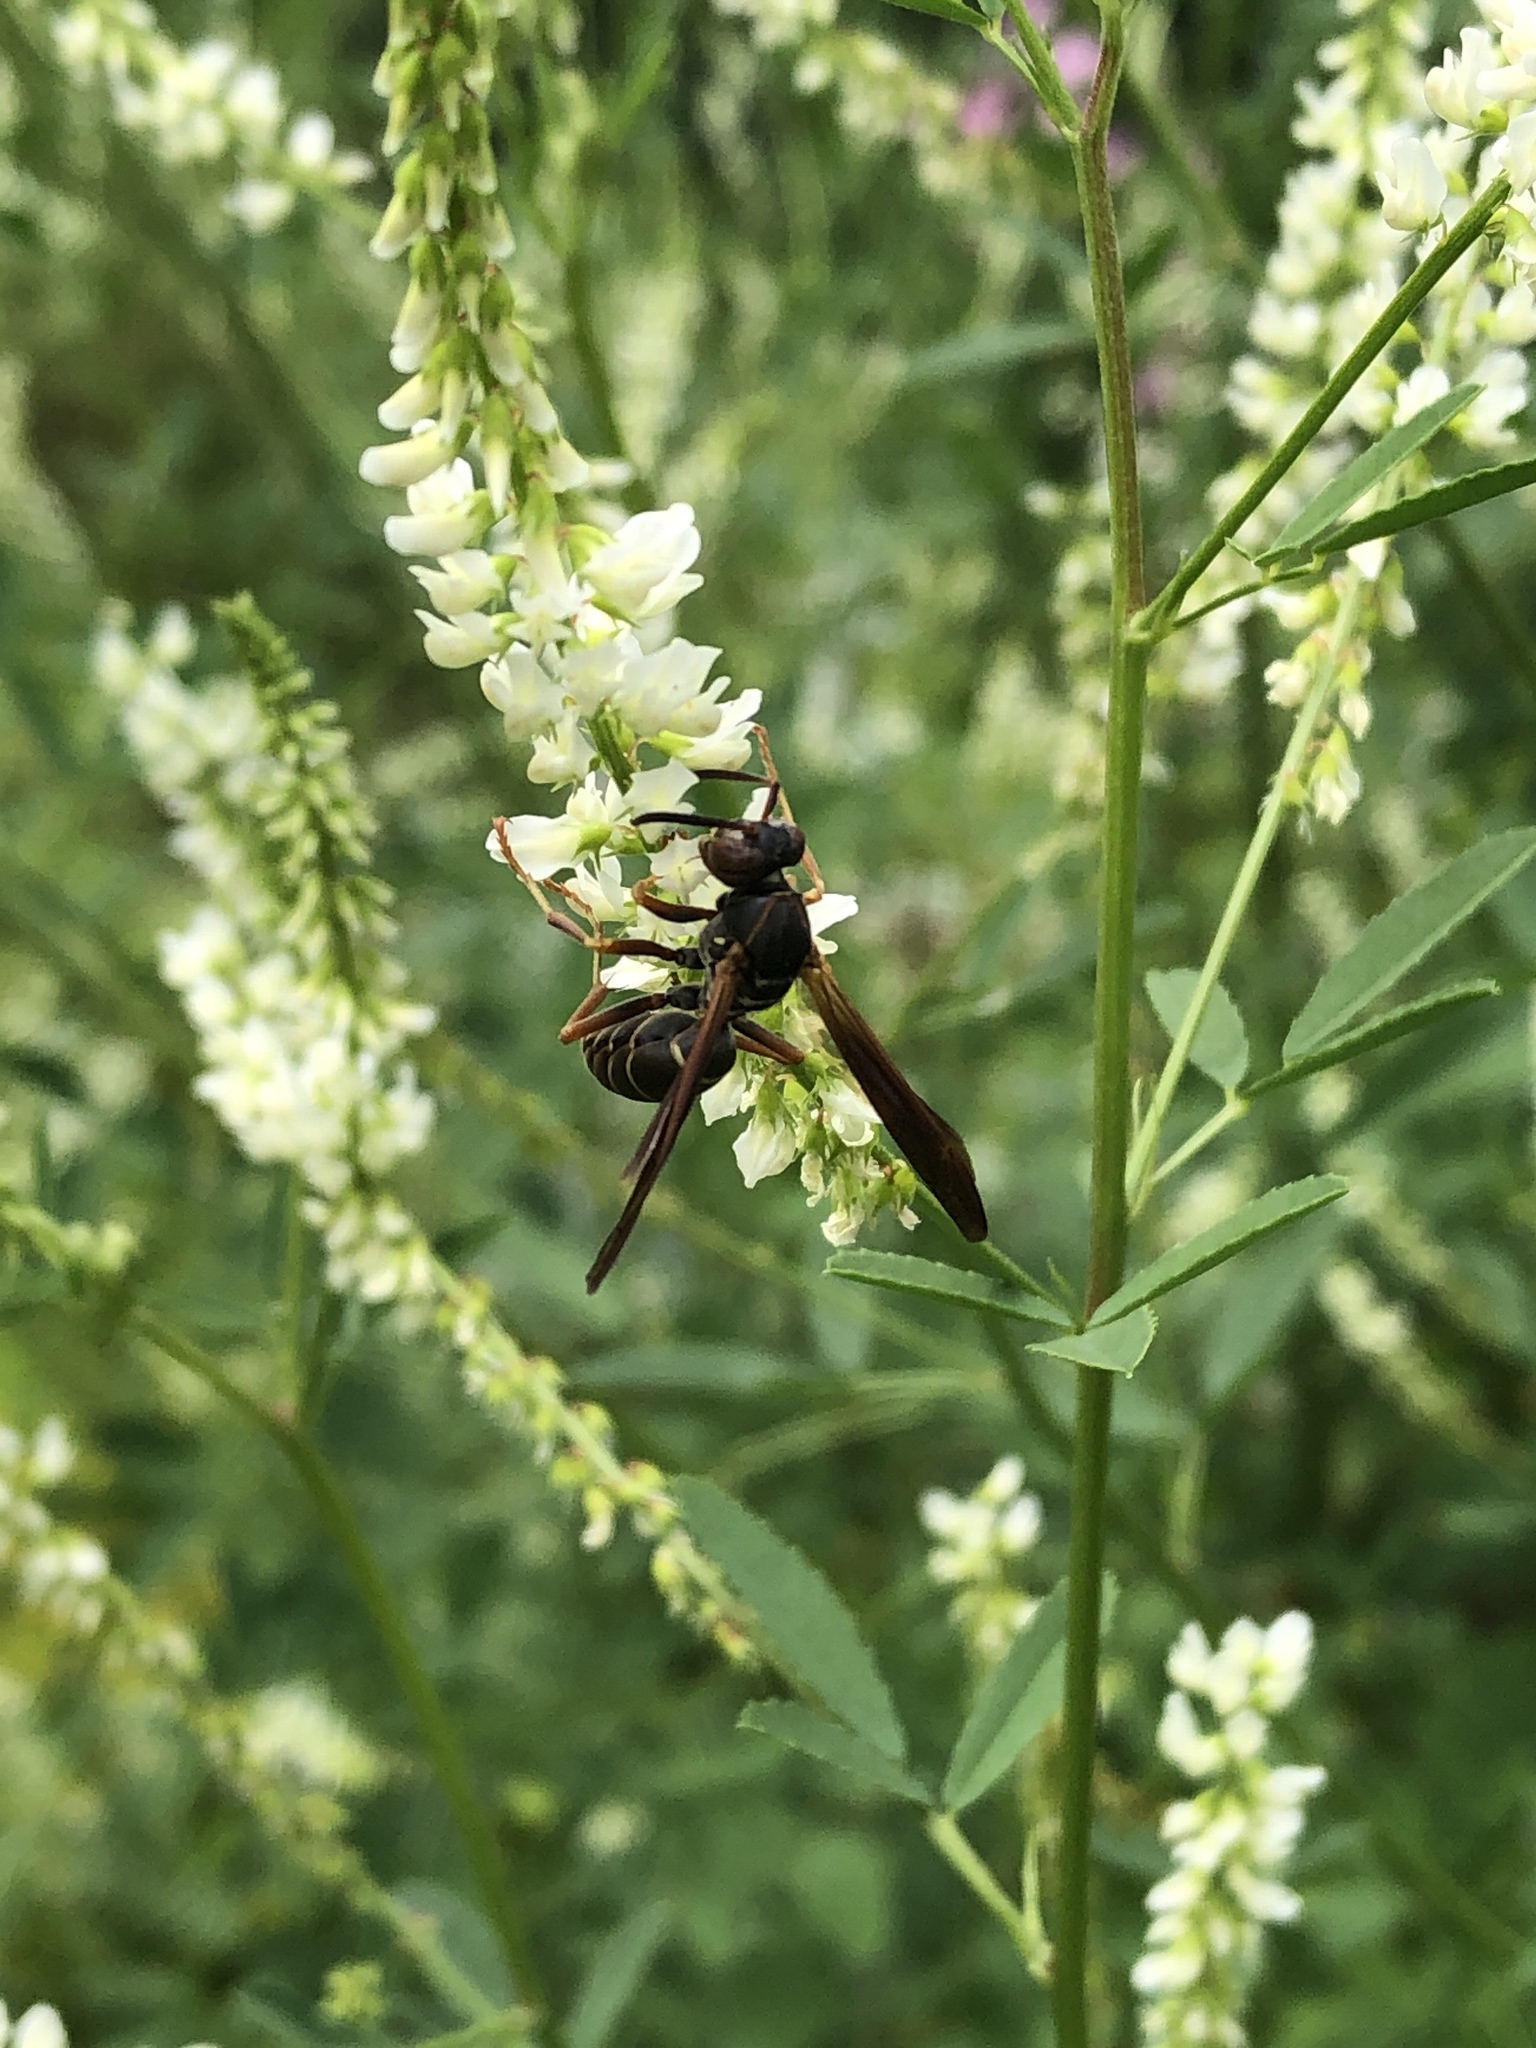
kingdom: Animalia
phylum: Arthropoda
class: Insecta
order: Hymenoptera
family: Eumenidae
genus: Polistes
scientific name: Polistes fuscatus
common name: Dark paper wasp
